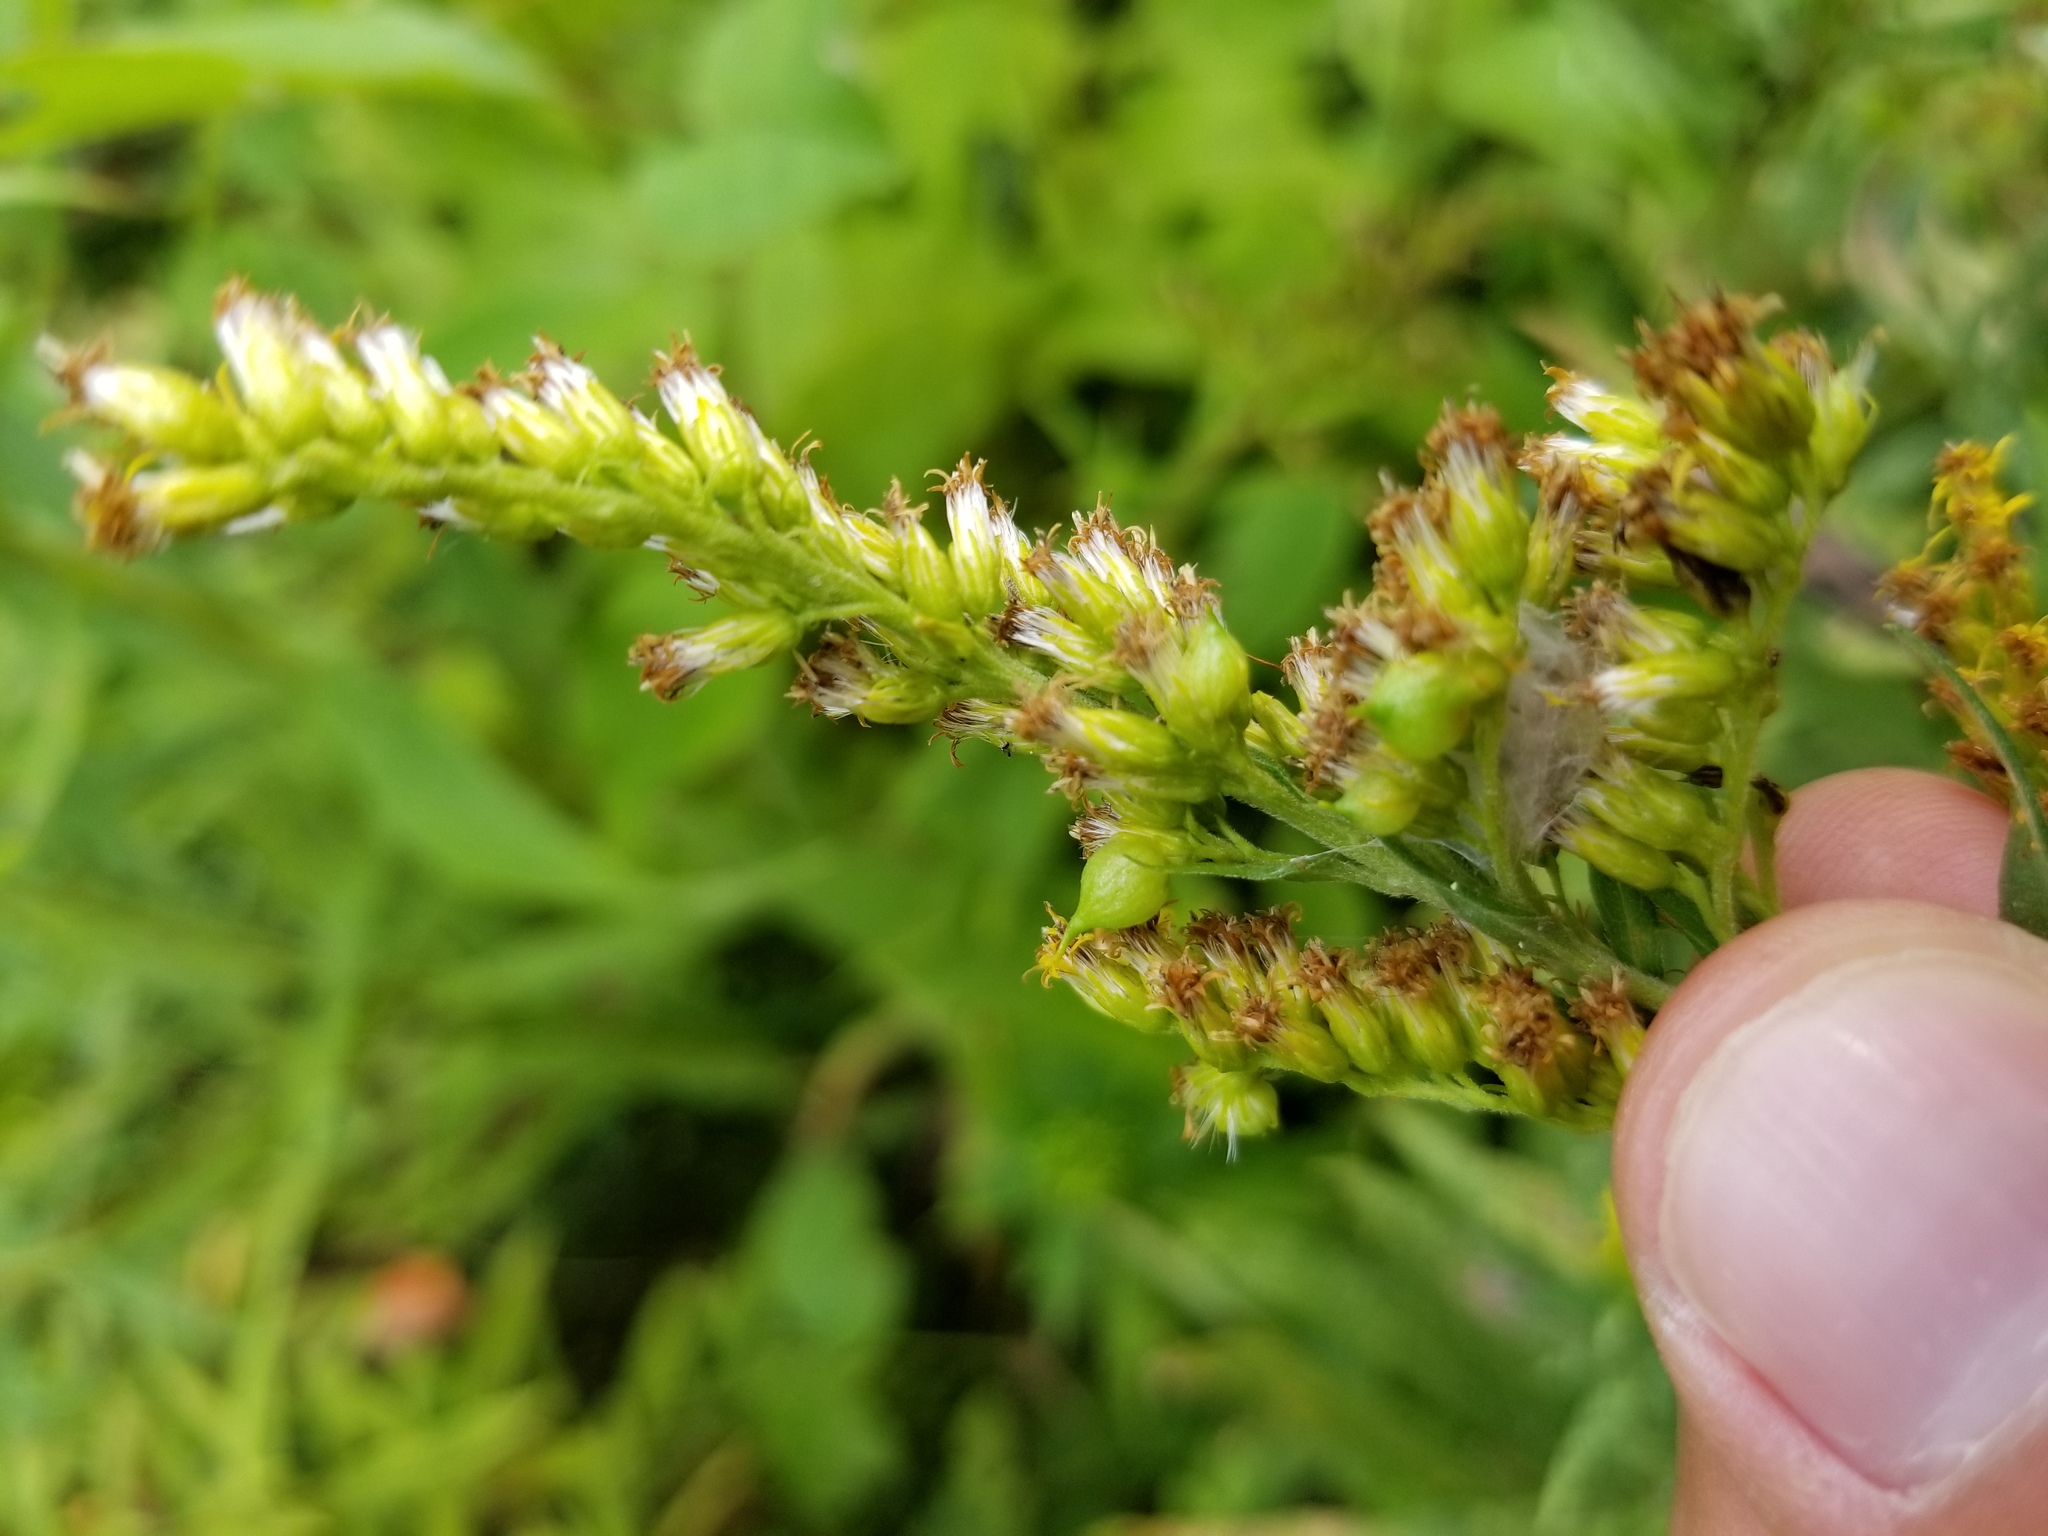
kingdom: Animalia
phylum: Arthropoda
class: Insecta
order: Diptera
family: Cecidomyiidae
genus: Schizomyia
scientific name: Schizomyia racemicola
